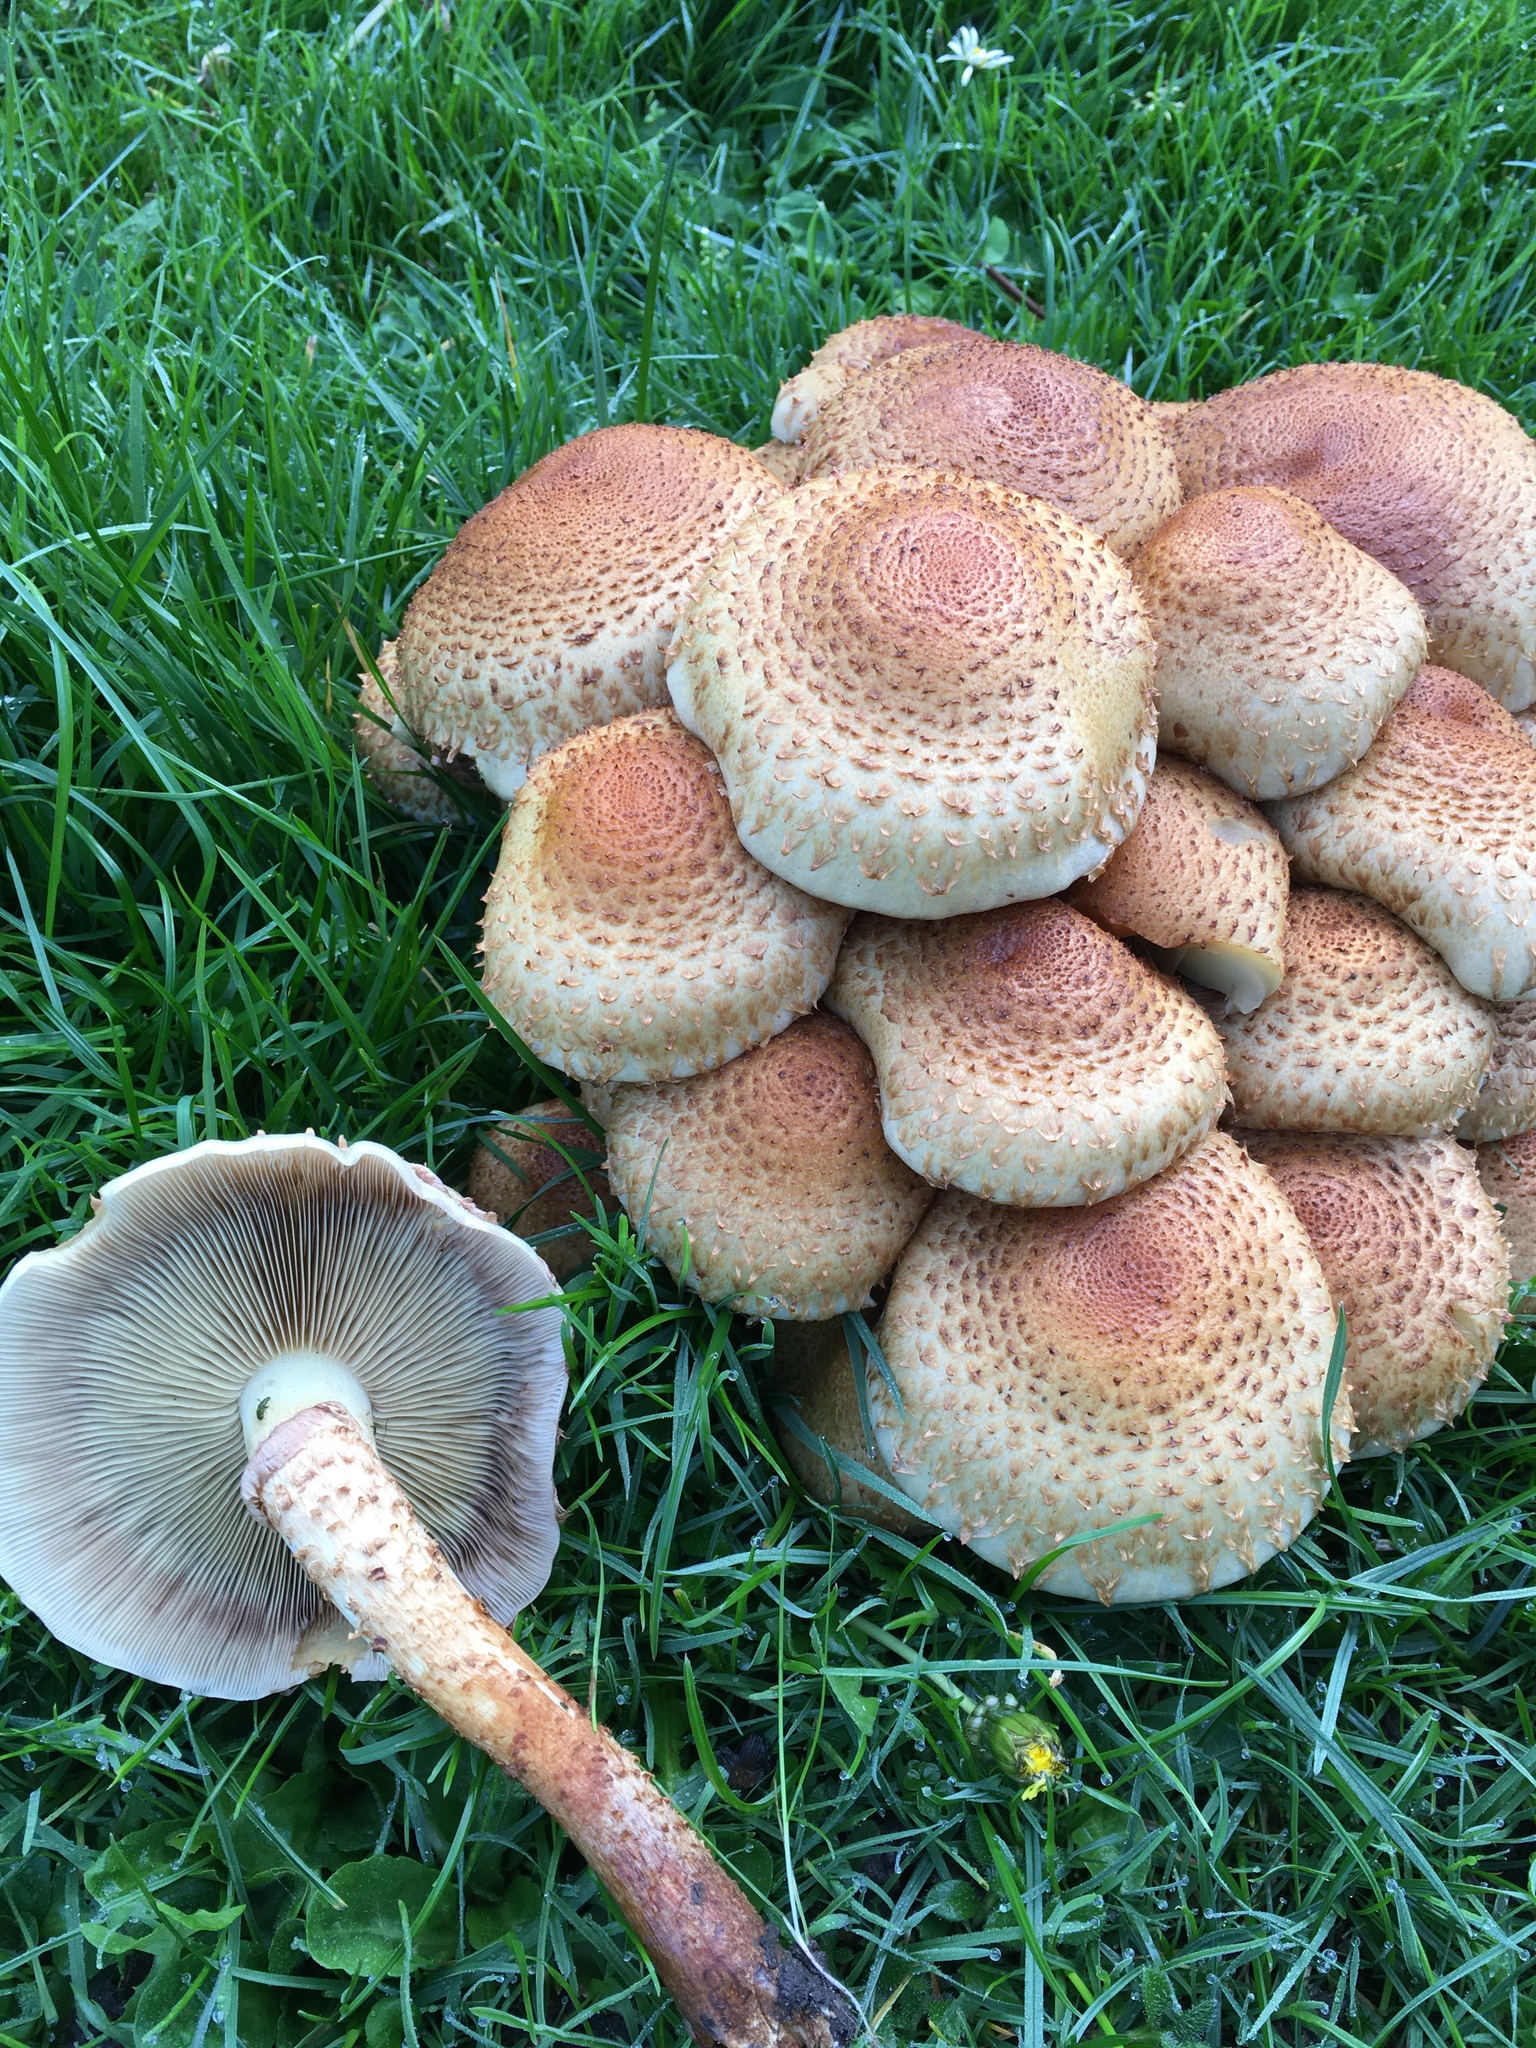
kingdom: Fungi
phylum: Basidiomycota
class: Agaricomycetes
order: Agaricales
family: Strophariaceae
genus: Pholiota
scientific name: Pholiota squarrosa
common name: Shaggy pholiota
